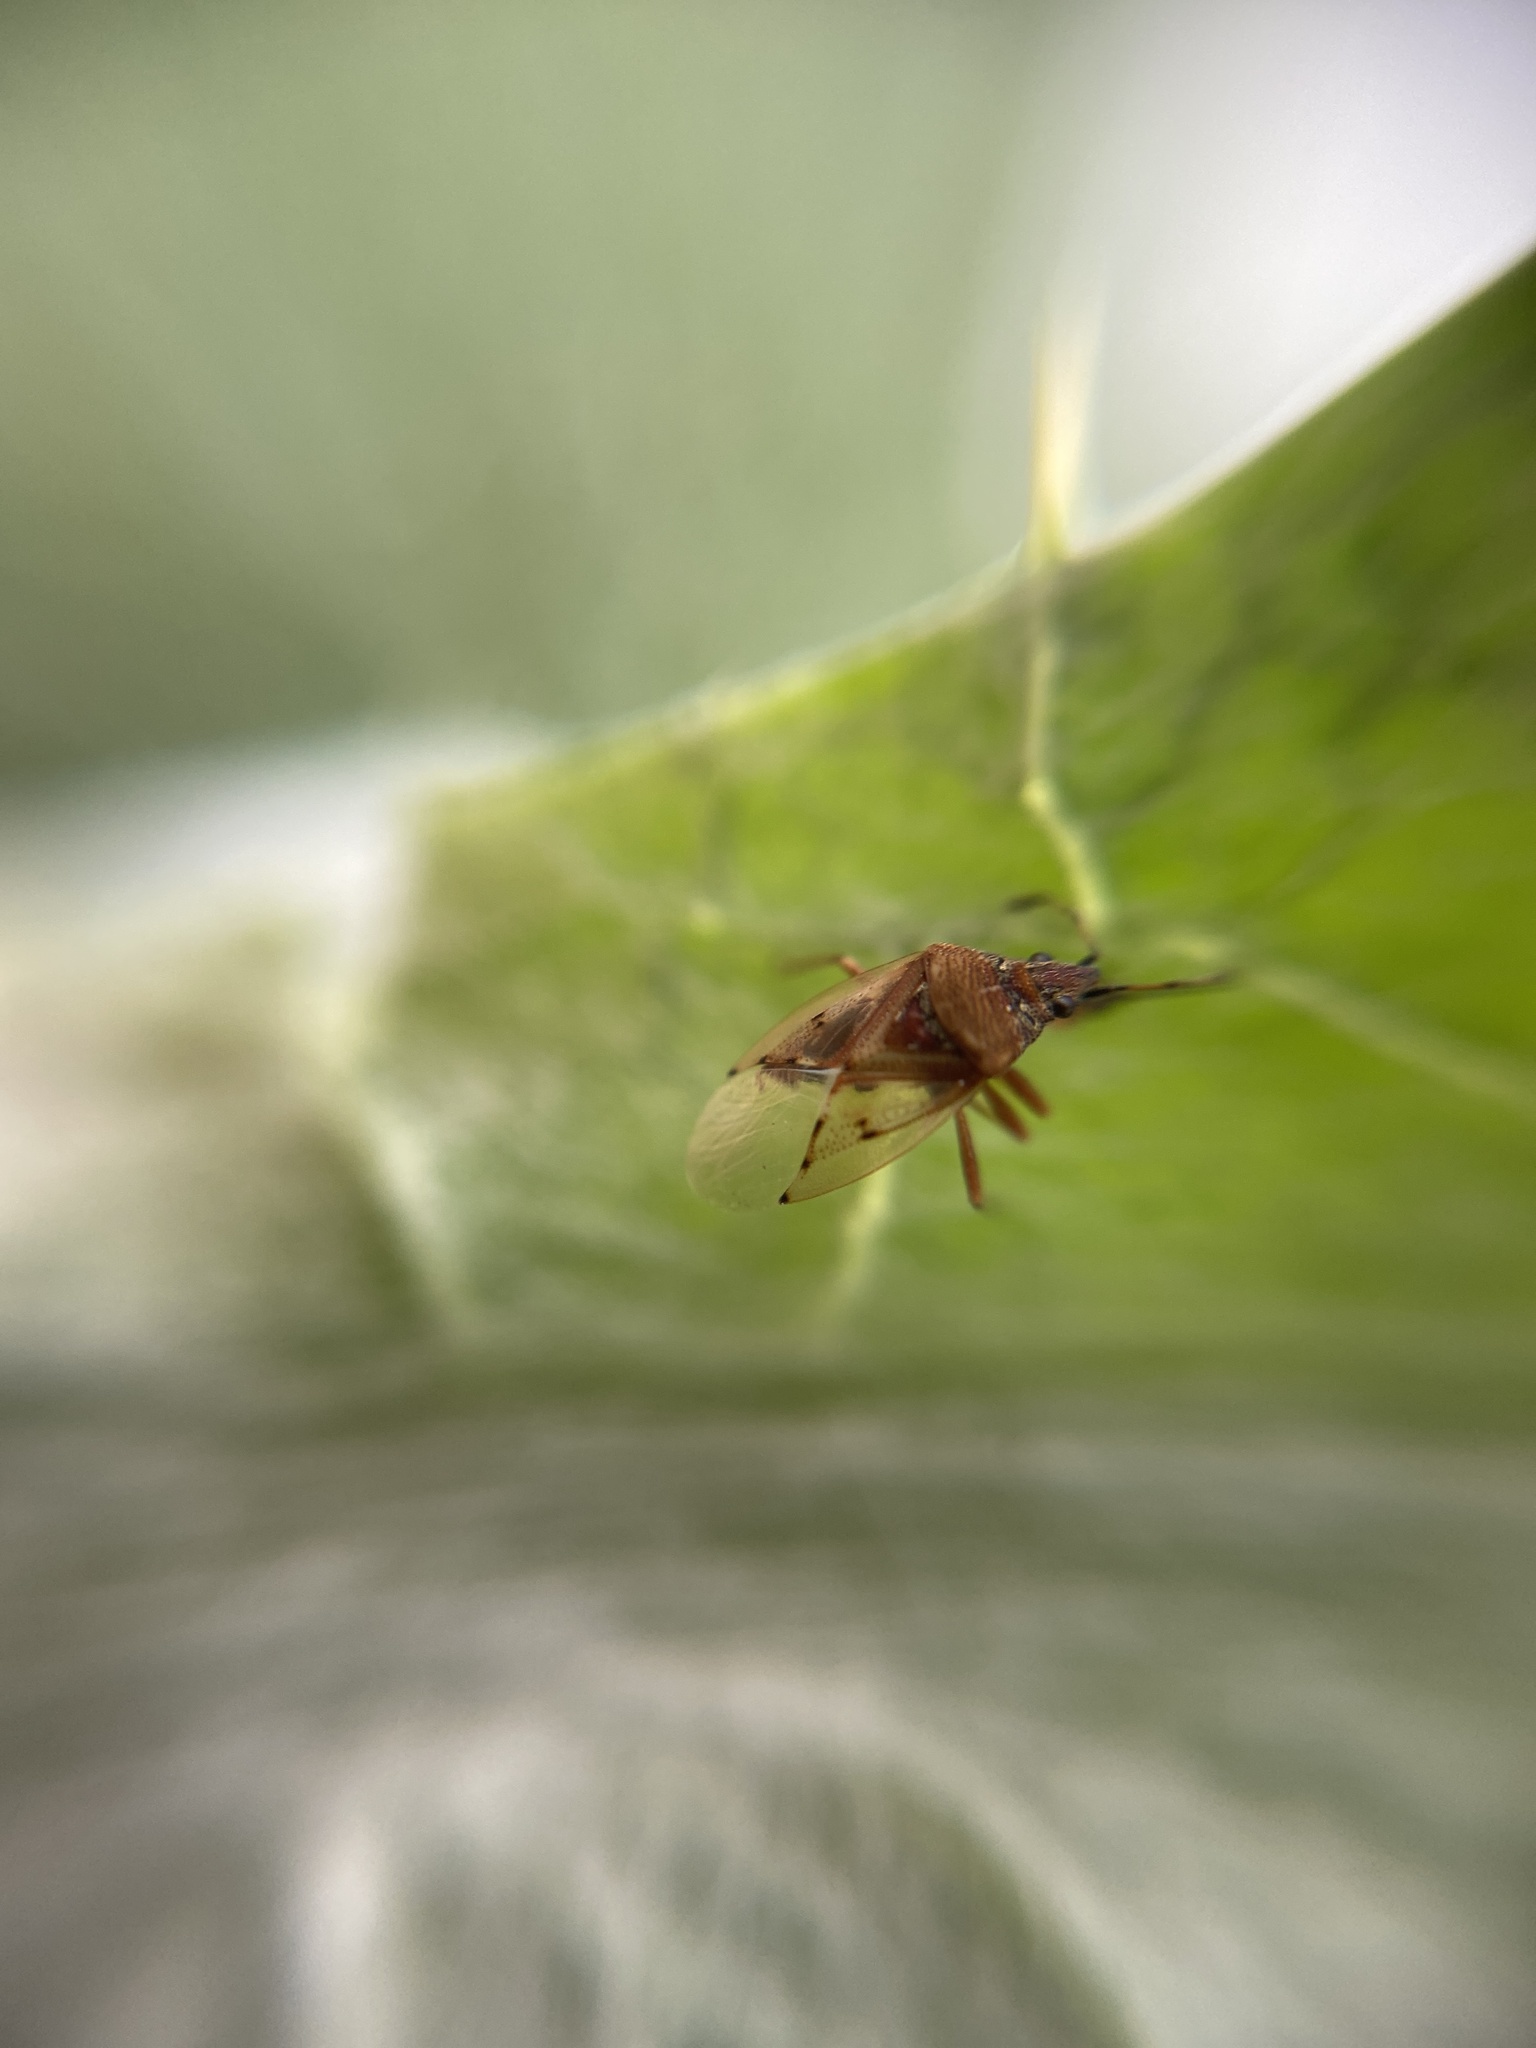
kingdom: Animalia
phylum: Arthropoda
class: Insecta
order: Hemiptera
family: Lygaeidae
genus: Kleidocerys
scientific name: Kleidocerys resedae
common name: Birch catkin bug
